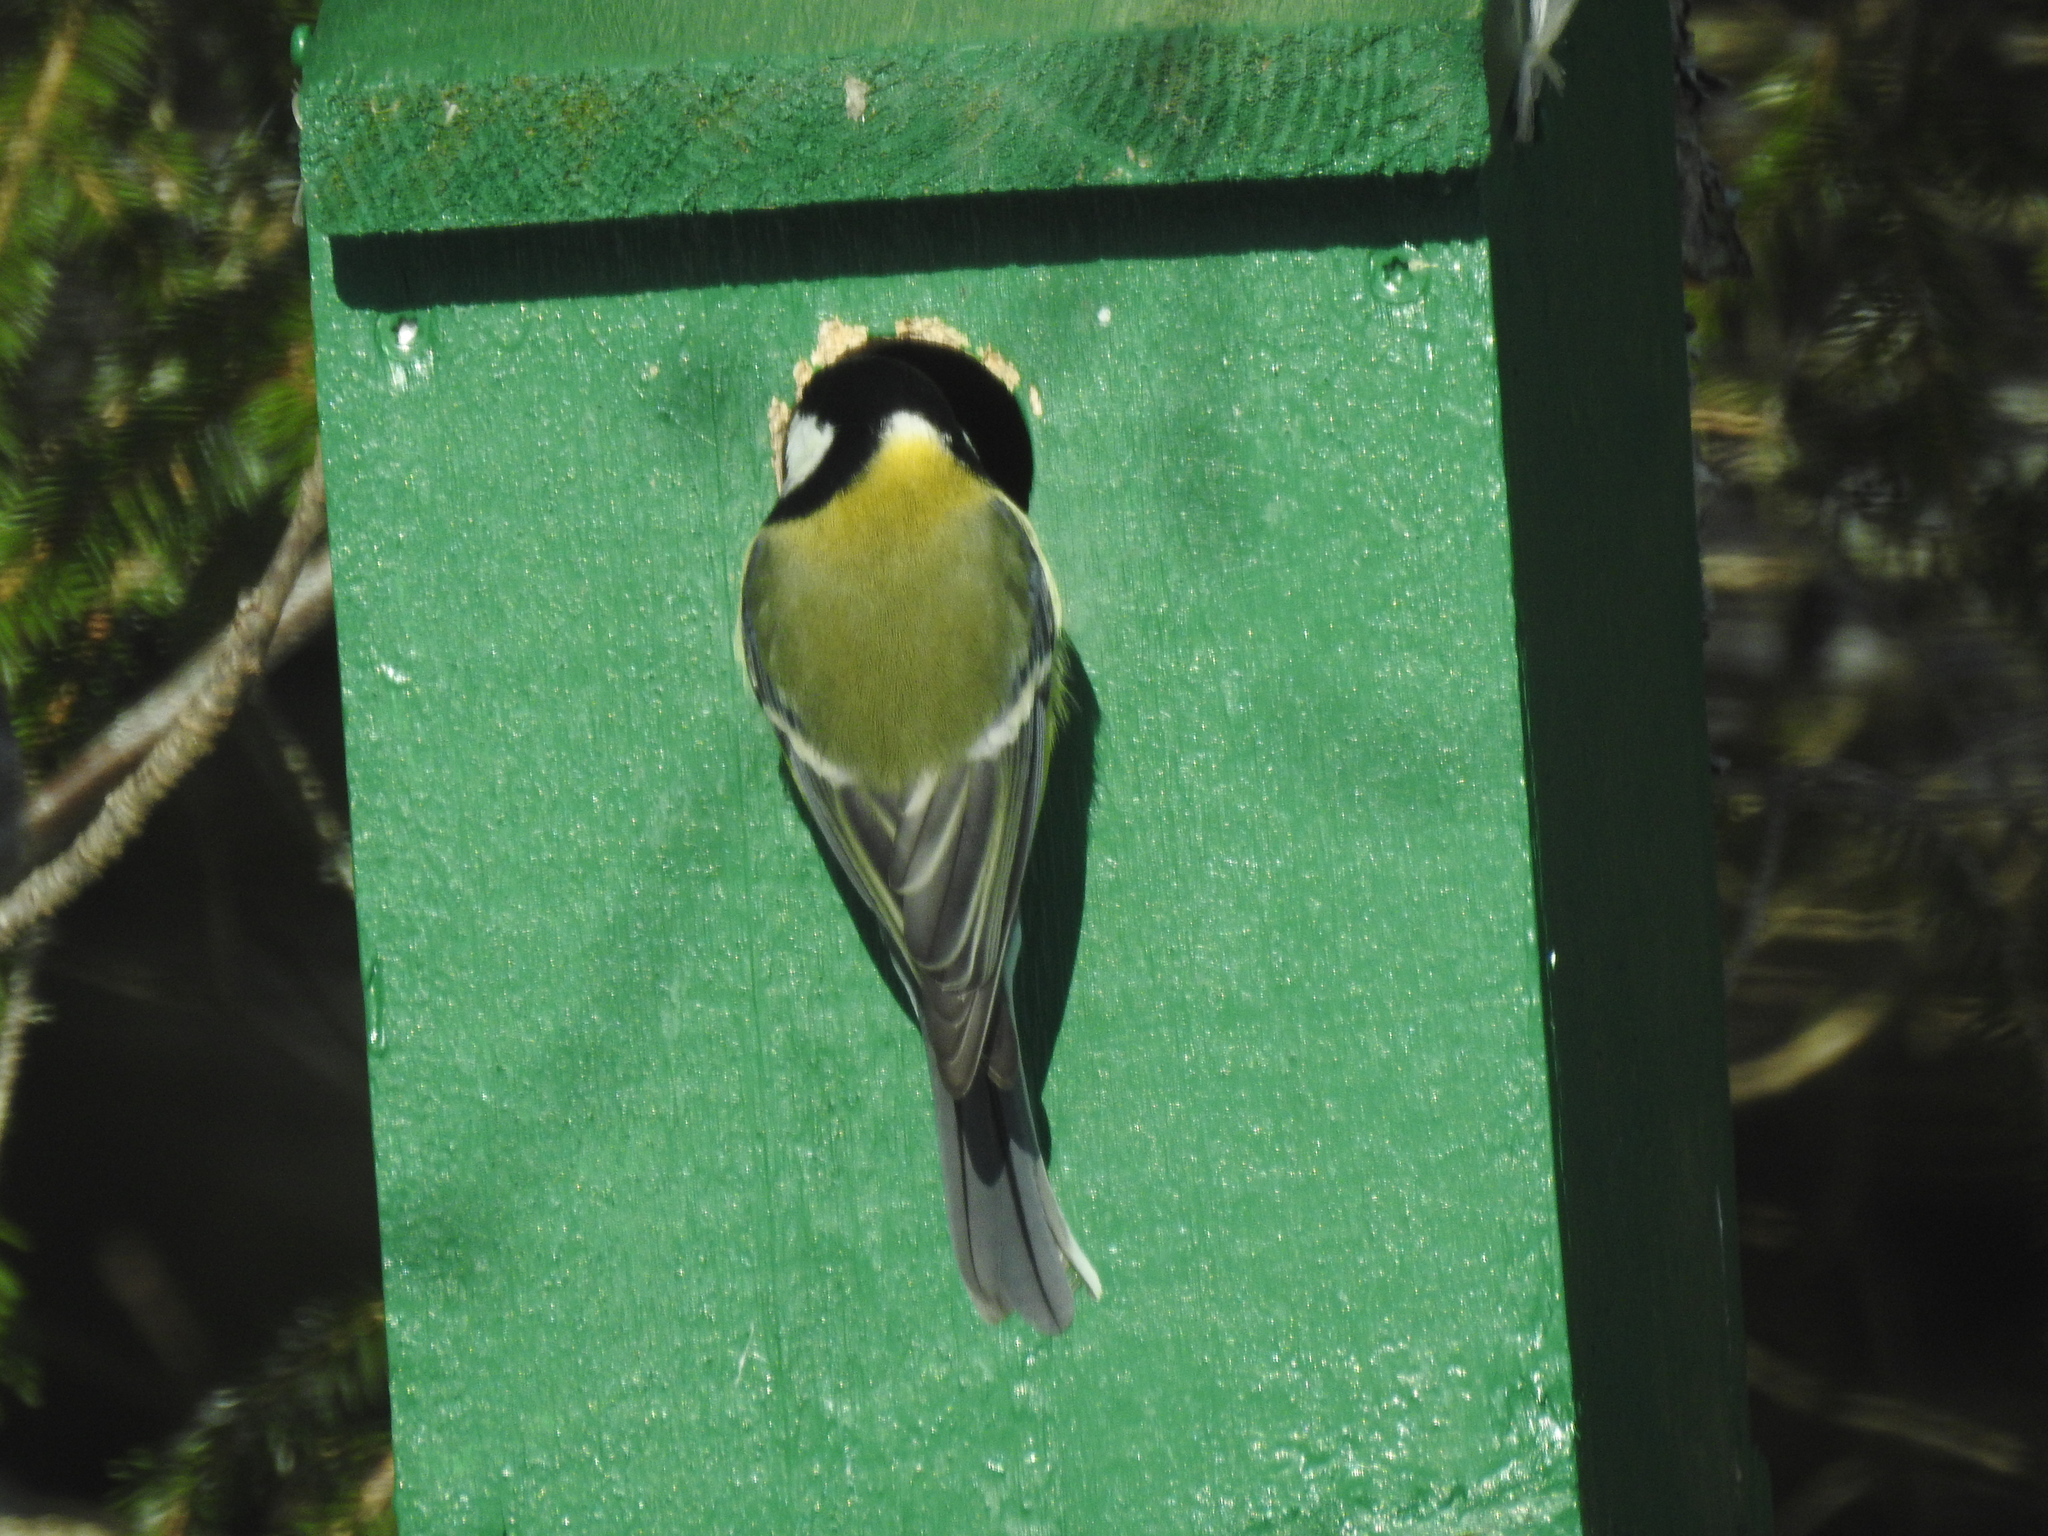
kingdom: Animalia
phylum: Chordata
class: Aves
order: Passeriformes
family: Paridae
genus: Parus
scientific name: Parus major
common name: Great tit
